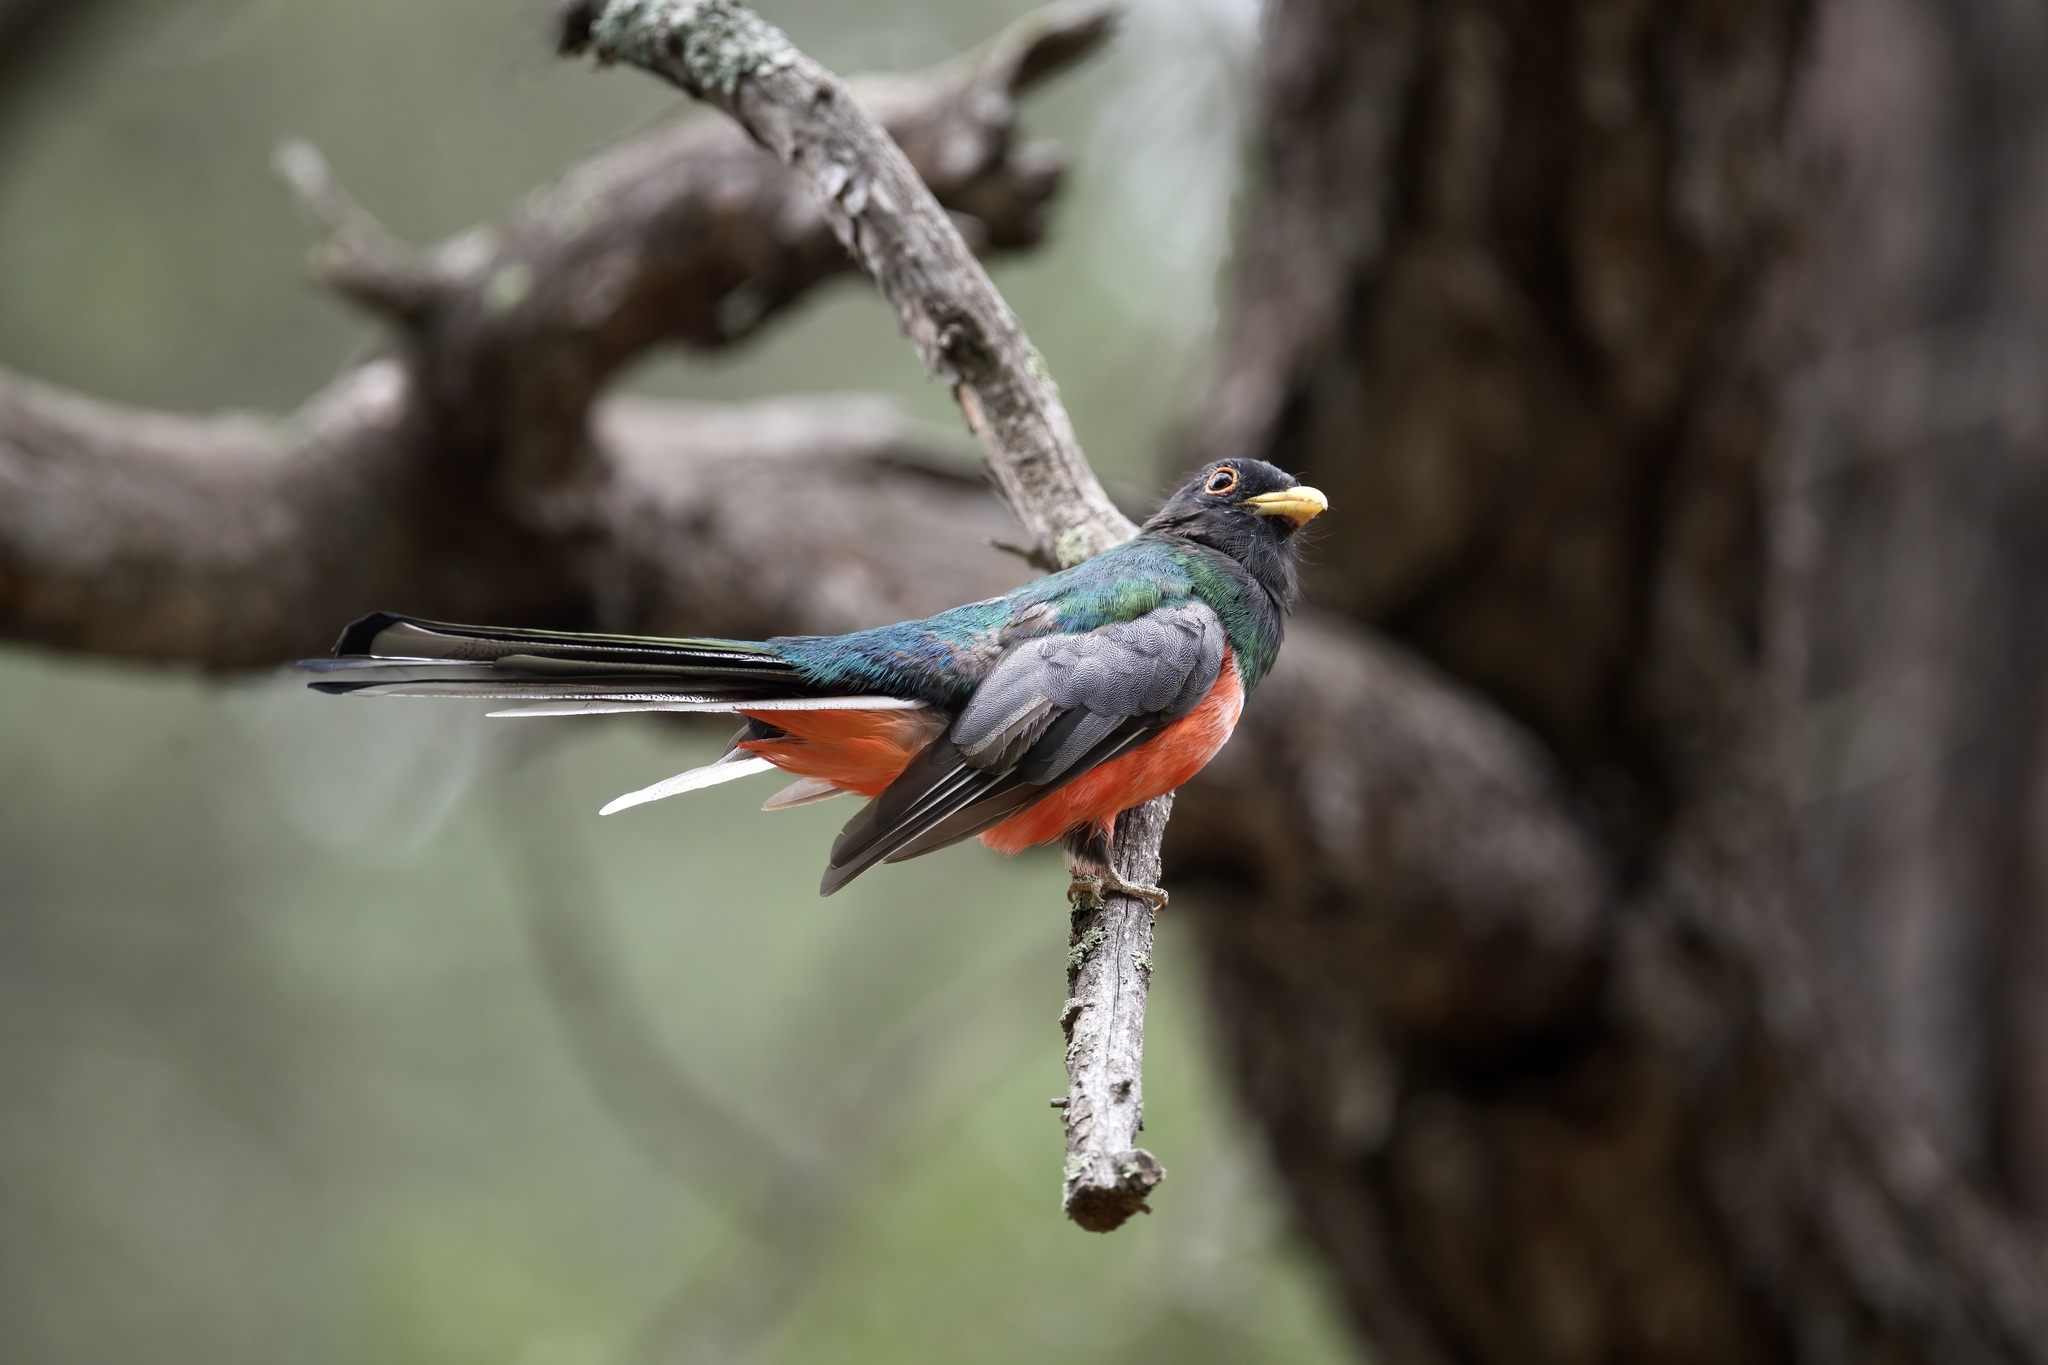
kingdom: Animalia
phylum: Chordata
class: Aves
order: Trogoniformes
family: Trogonidae
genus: Trogon
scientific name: Trogon elegans
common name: Elegant trogon
